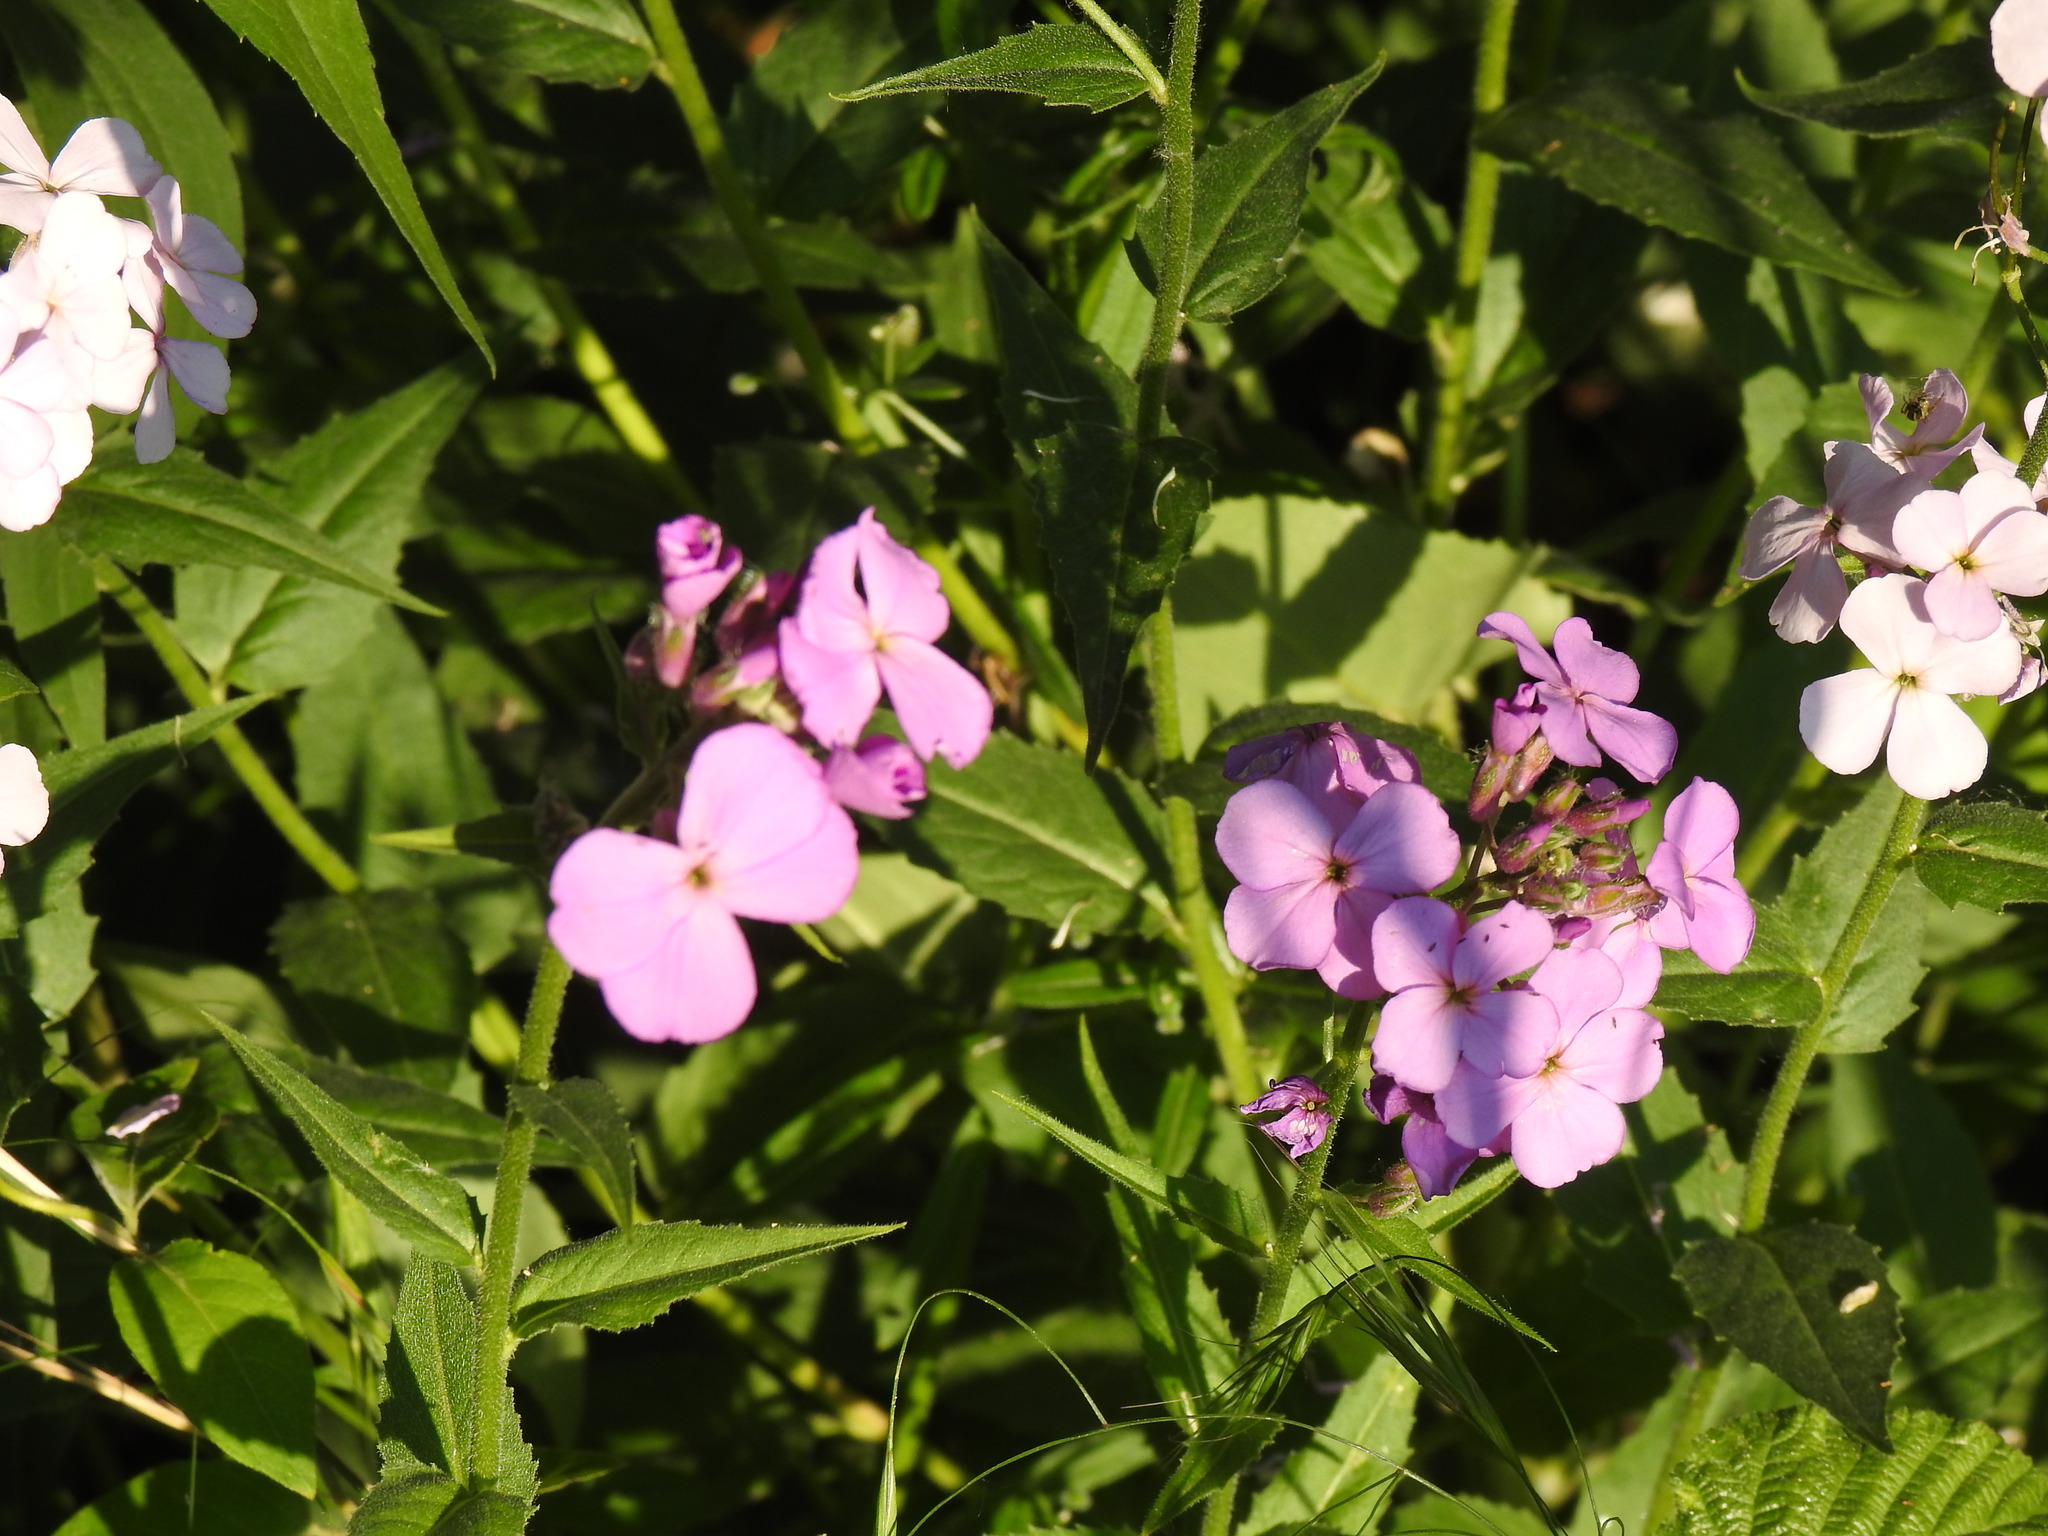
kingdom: Plantae
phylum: Tracheophyta
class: Magnoliopsida
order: Brassicales
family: Brassicaceae
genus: Hesperis
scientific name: Hesperis matronalis
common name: Dame's-violet
